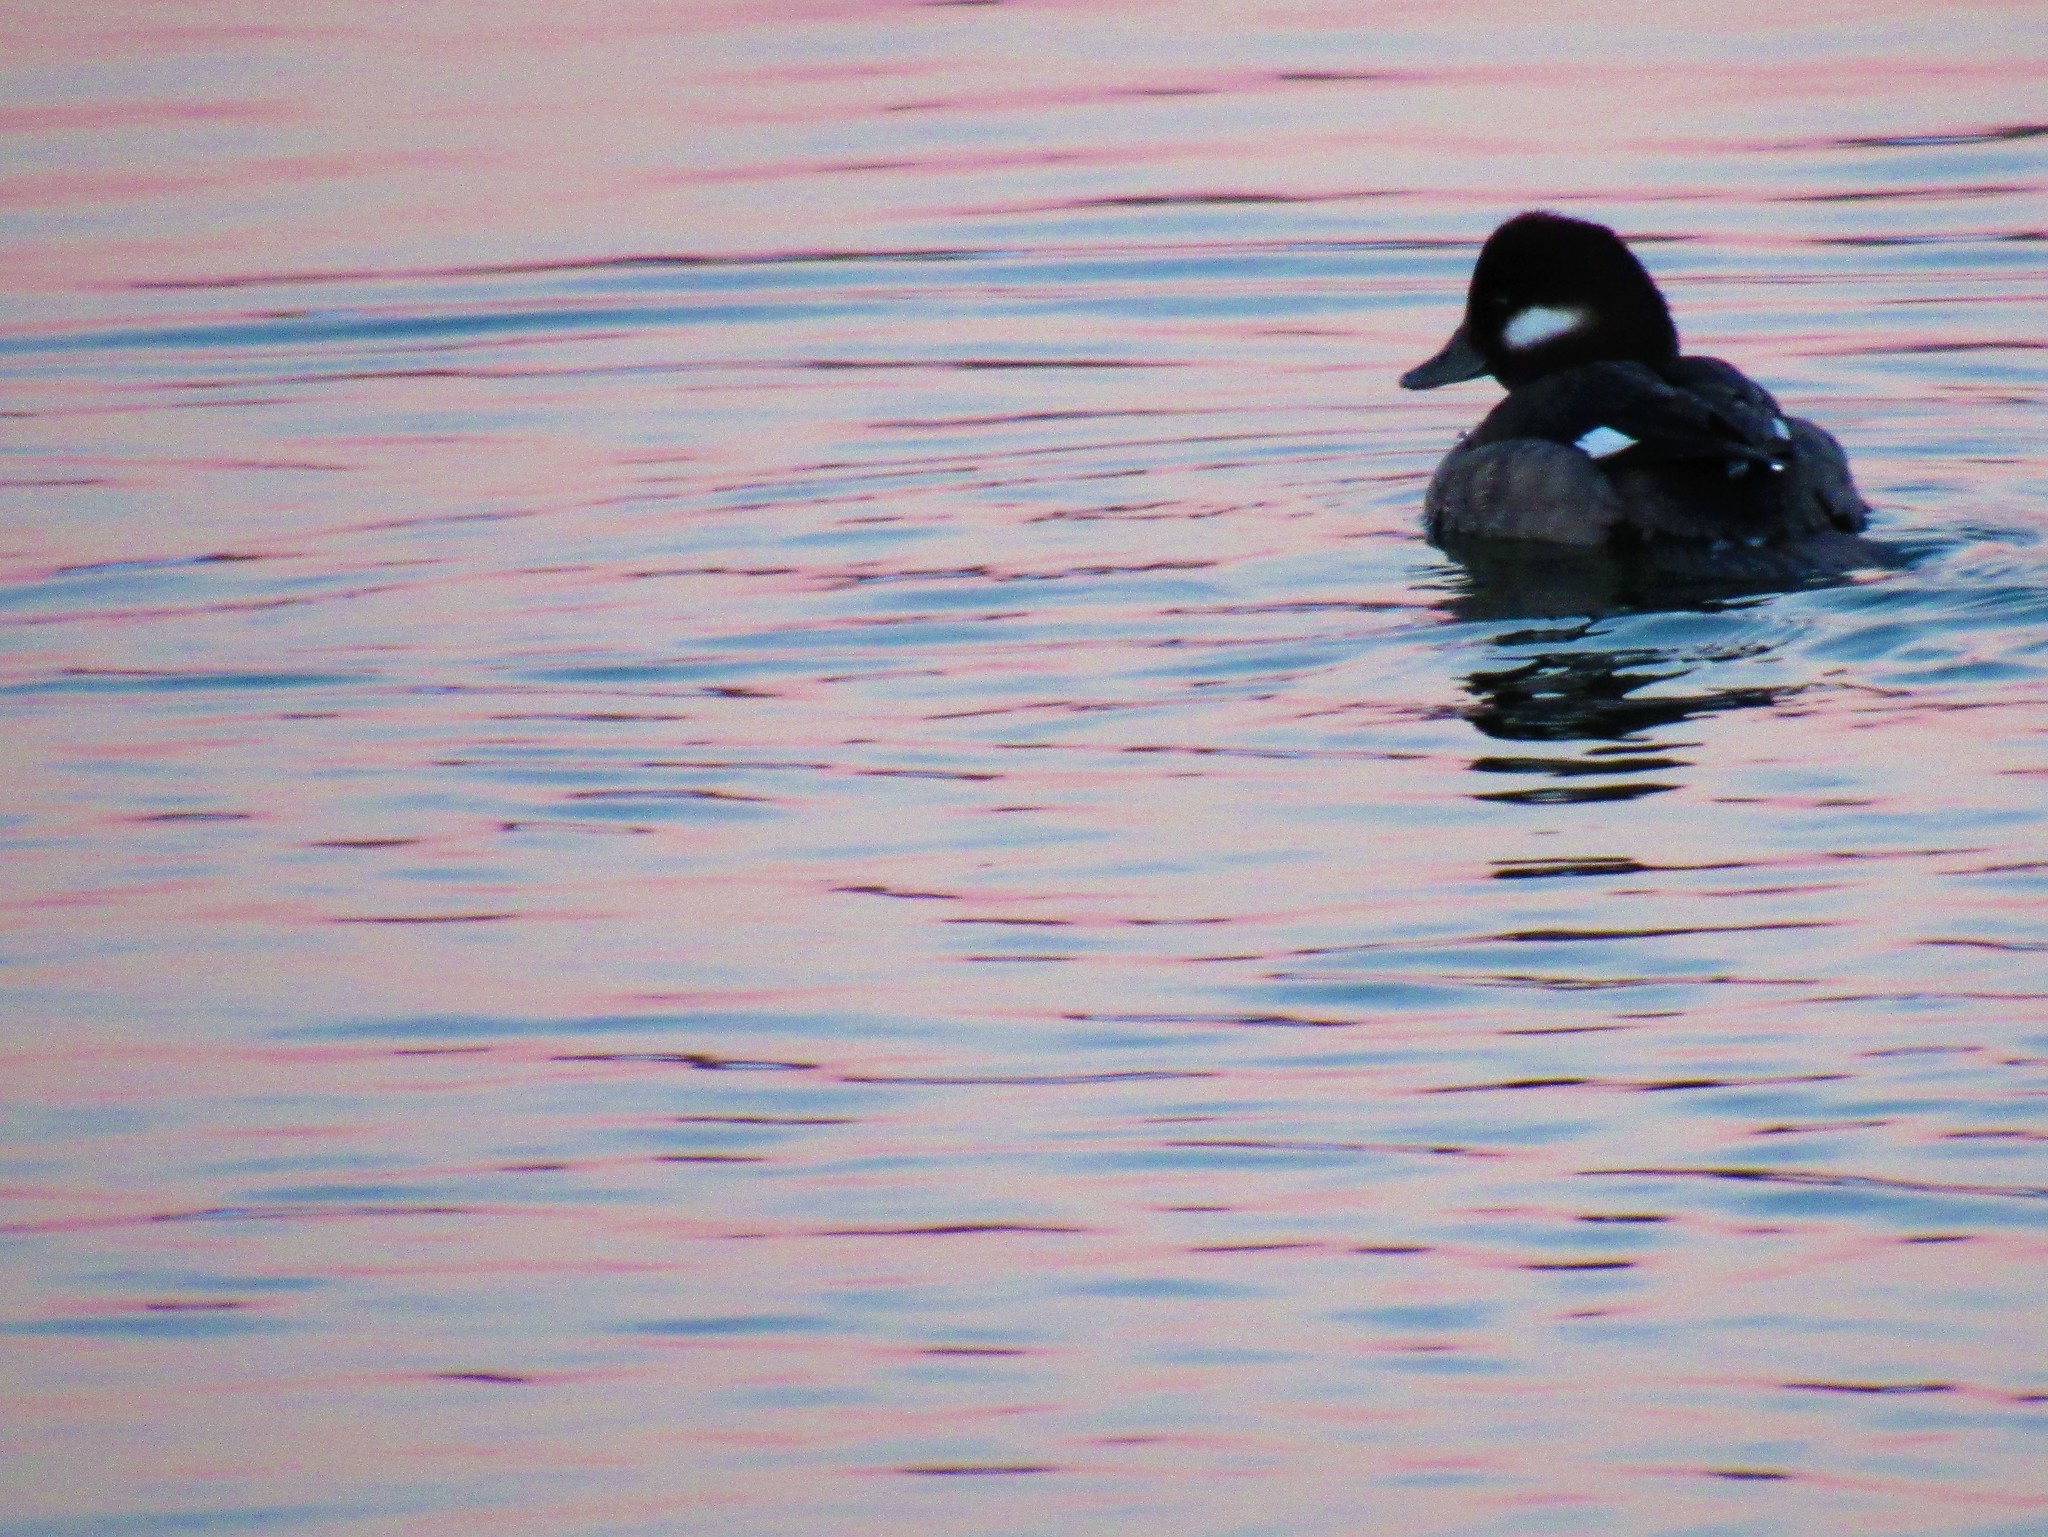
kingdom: Animalia
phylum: Chordata
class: Aves
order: Anseriformes
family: Anatidae
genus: Bucephala
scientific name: Bucephala albeola
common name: Bufflehead
